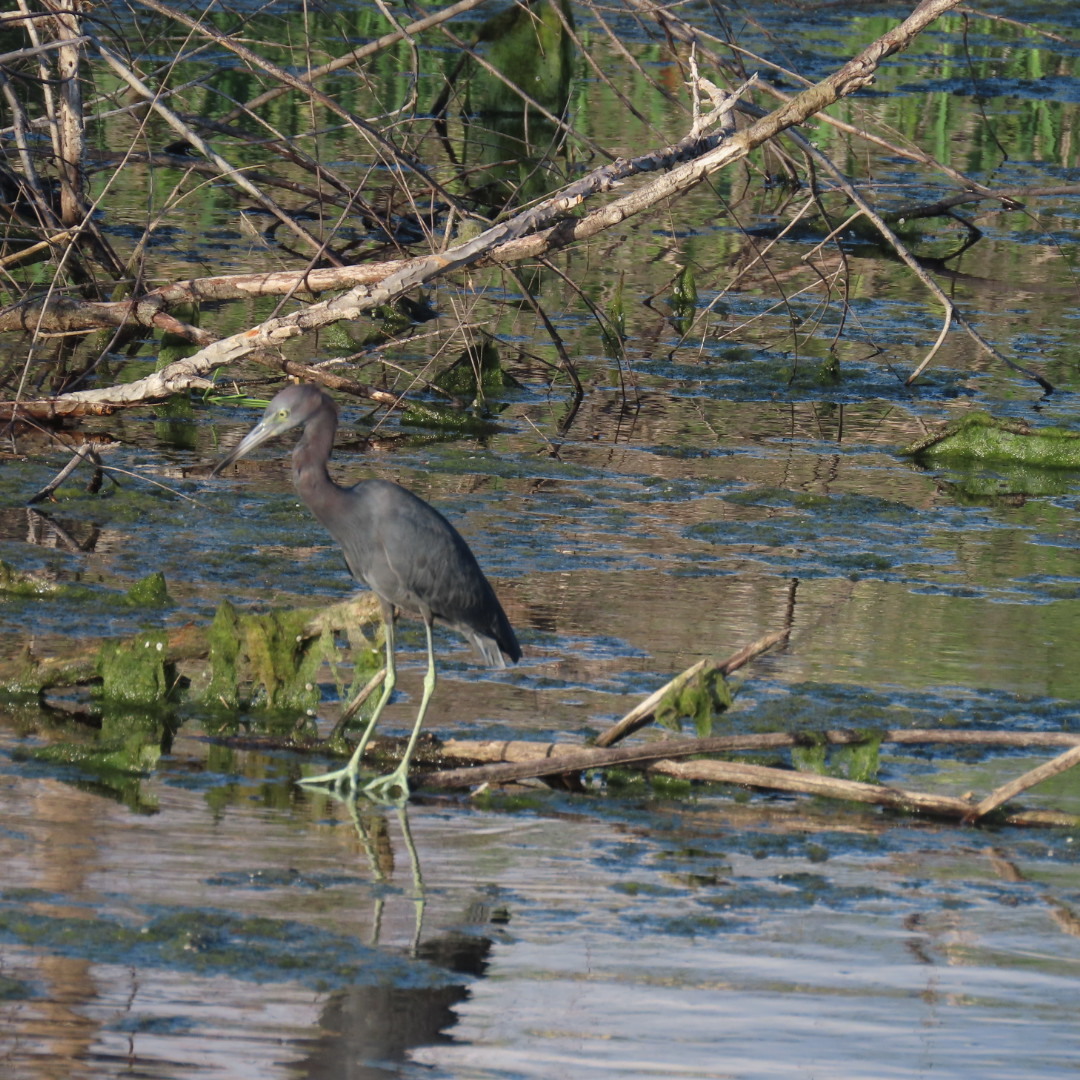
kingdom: Animalia
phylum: Chordata
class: Aves
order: Pelecaniformes
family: Ardeidae
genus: Egretta
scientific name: Egretta caerulea
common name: Little blue heron
